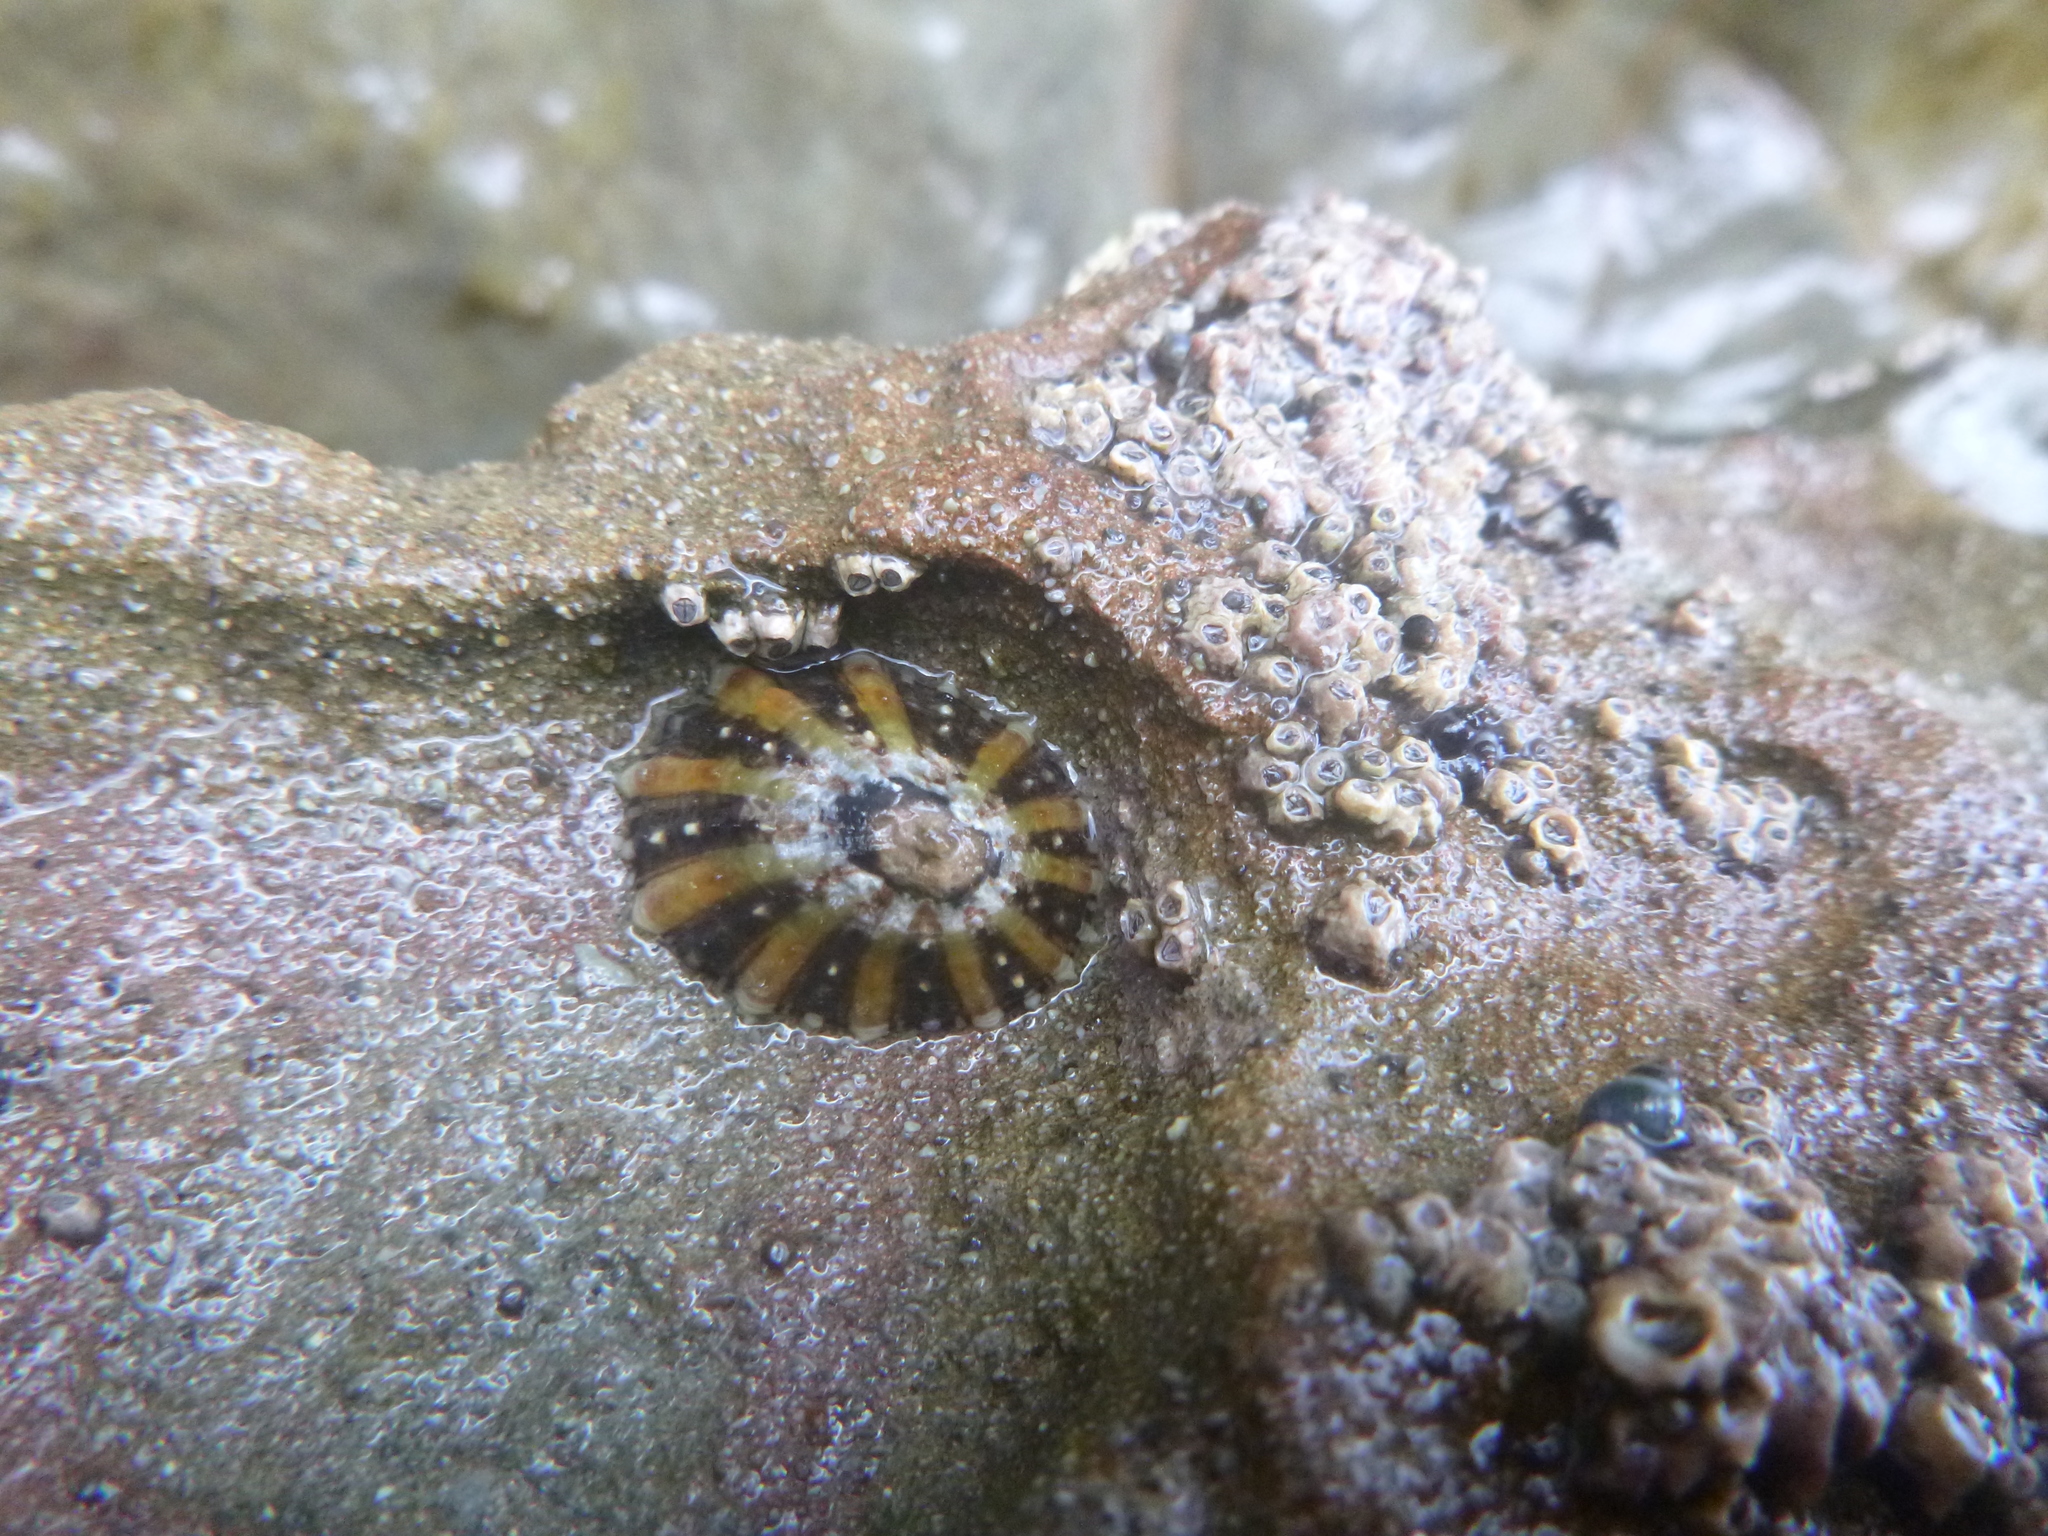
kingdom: Animalia
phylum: Mollusca
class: Gastropoda
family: Nacellidae
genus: Cellana
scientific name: Cellana ornata
